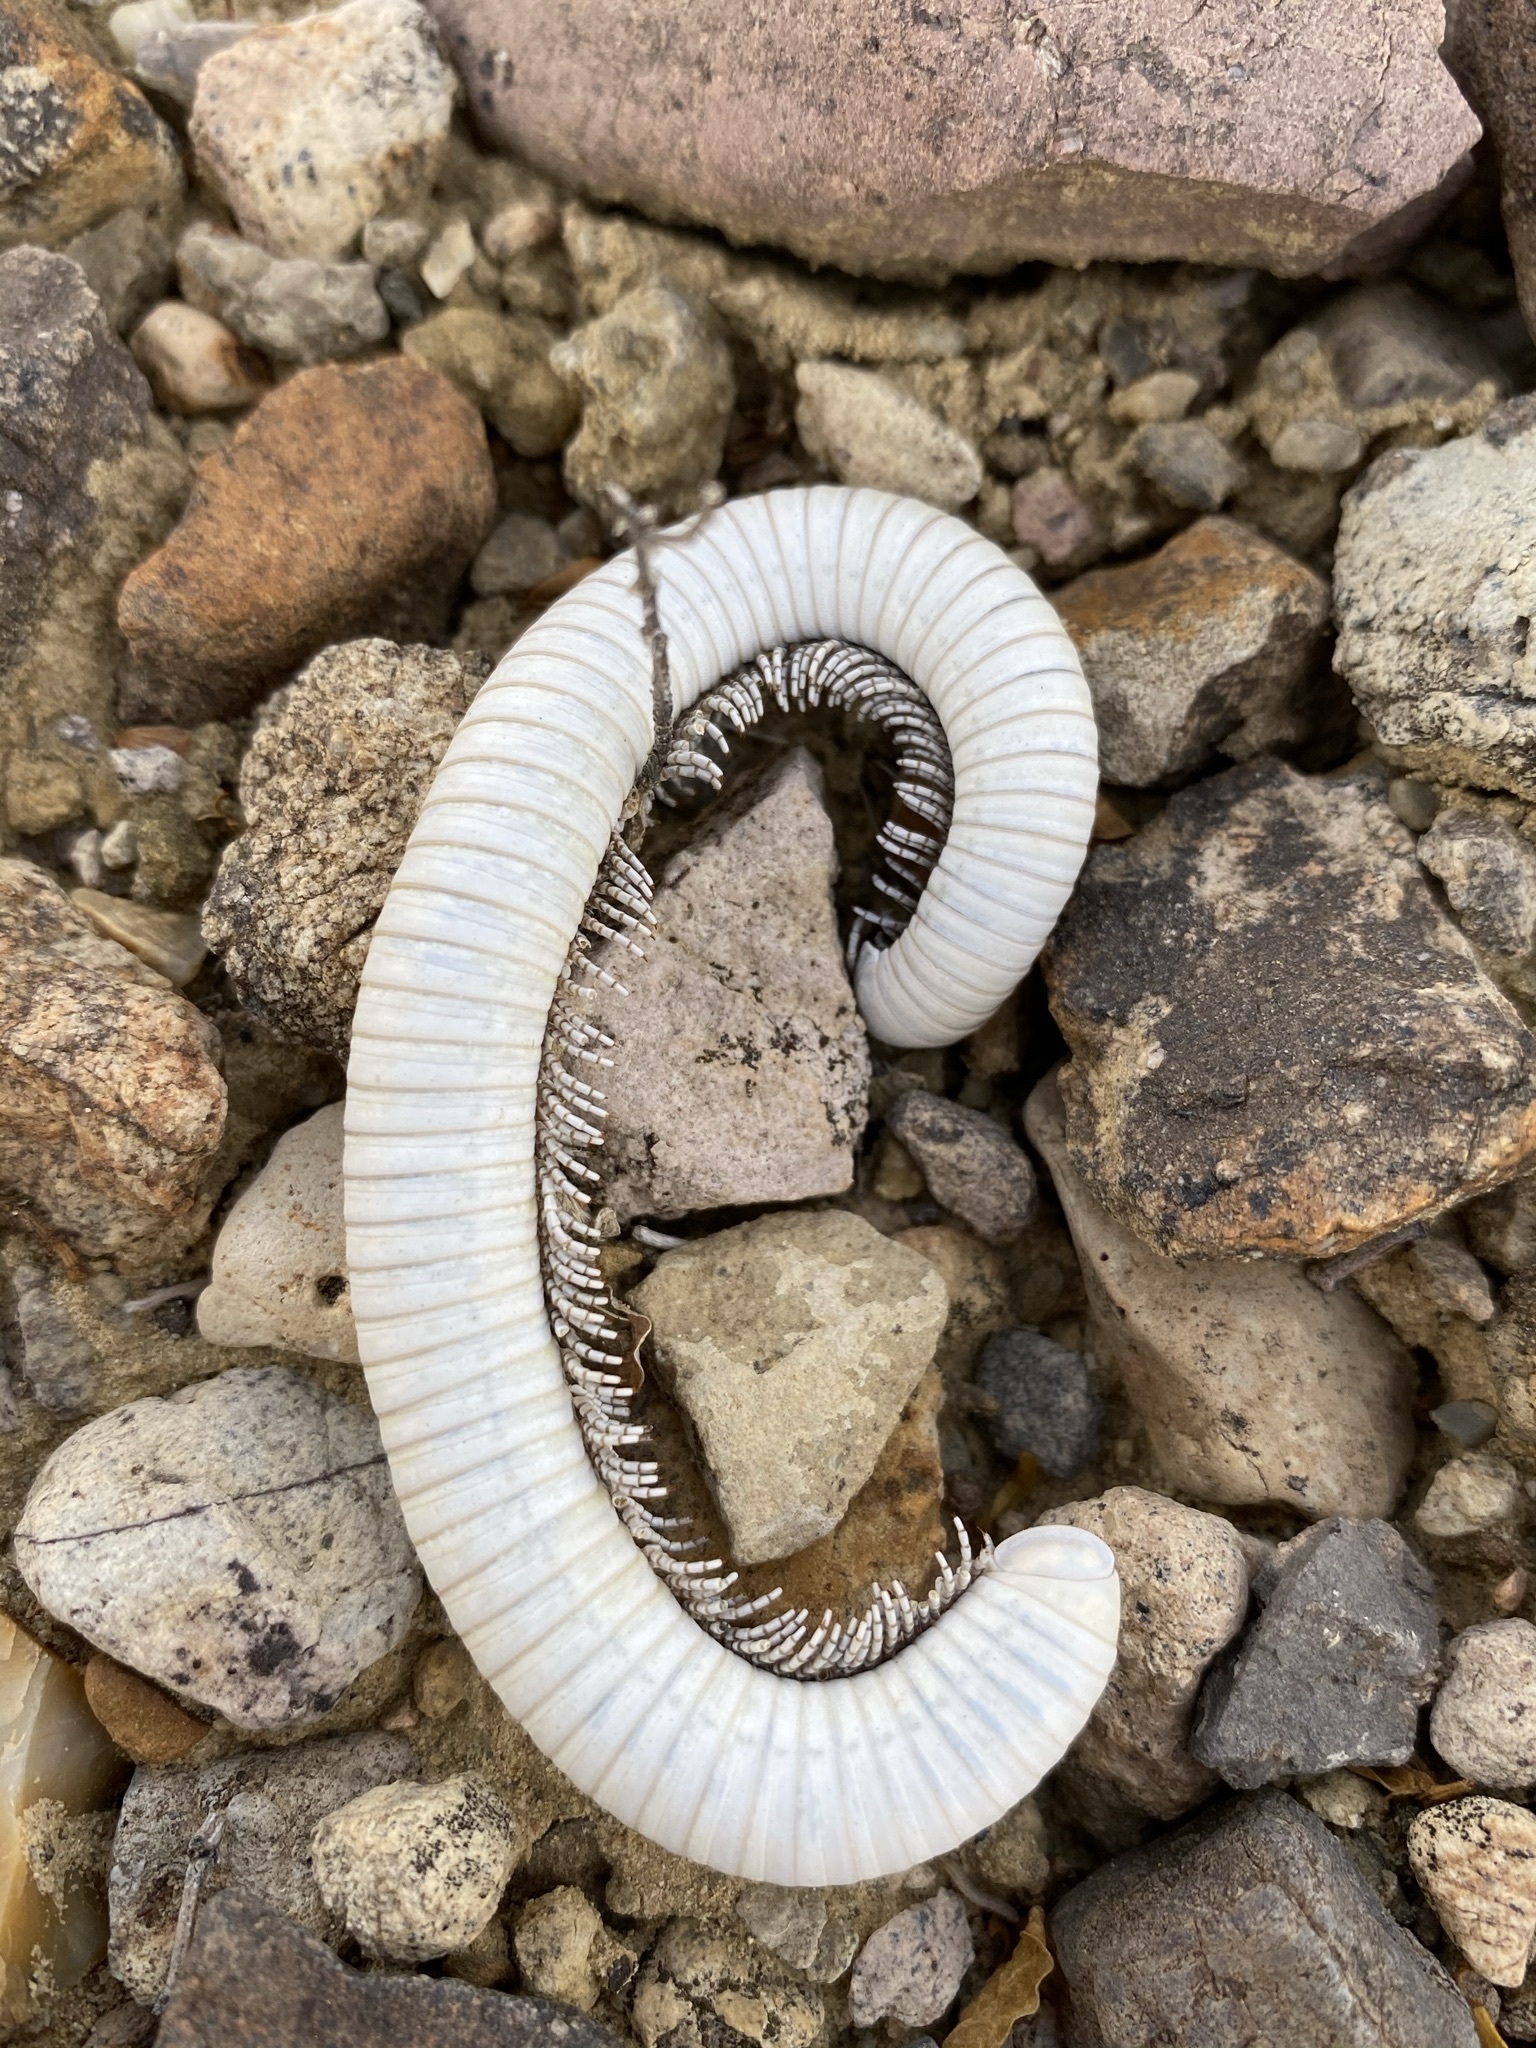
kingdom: Animalia
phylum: Arthropoda
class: Diplopoda
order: Spirostreptida
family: Spirostreptidae
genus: Orthoporus
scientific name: Orthoporus ornatus
